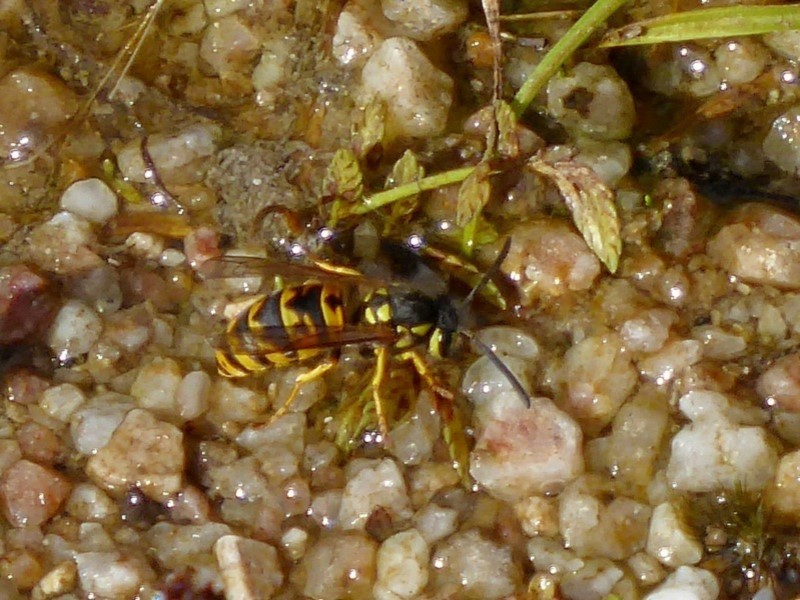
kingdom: Animalia
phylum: Arthropoda
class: Insecta
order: Hymenoptera
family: Vespidae
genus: Vespula
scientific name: Vespula germanica
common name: German wasp
